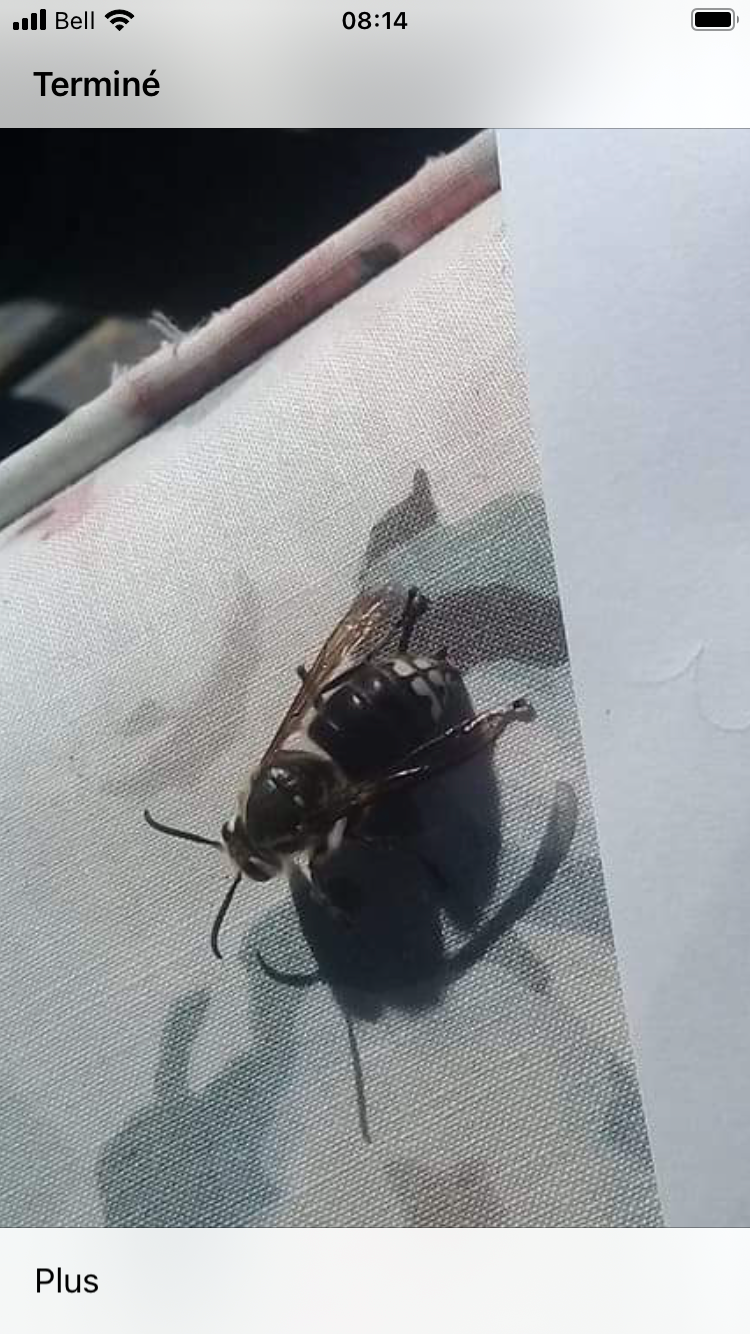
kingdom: Animalia
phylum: Arthropoda
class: Insecta
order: Hymenoptera
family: Vespidae
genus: Dolichovespula
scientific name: Dolichovespula maculata
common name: Bald-faced hornet
